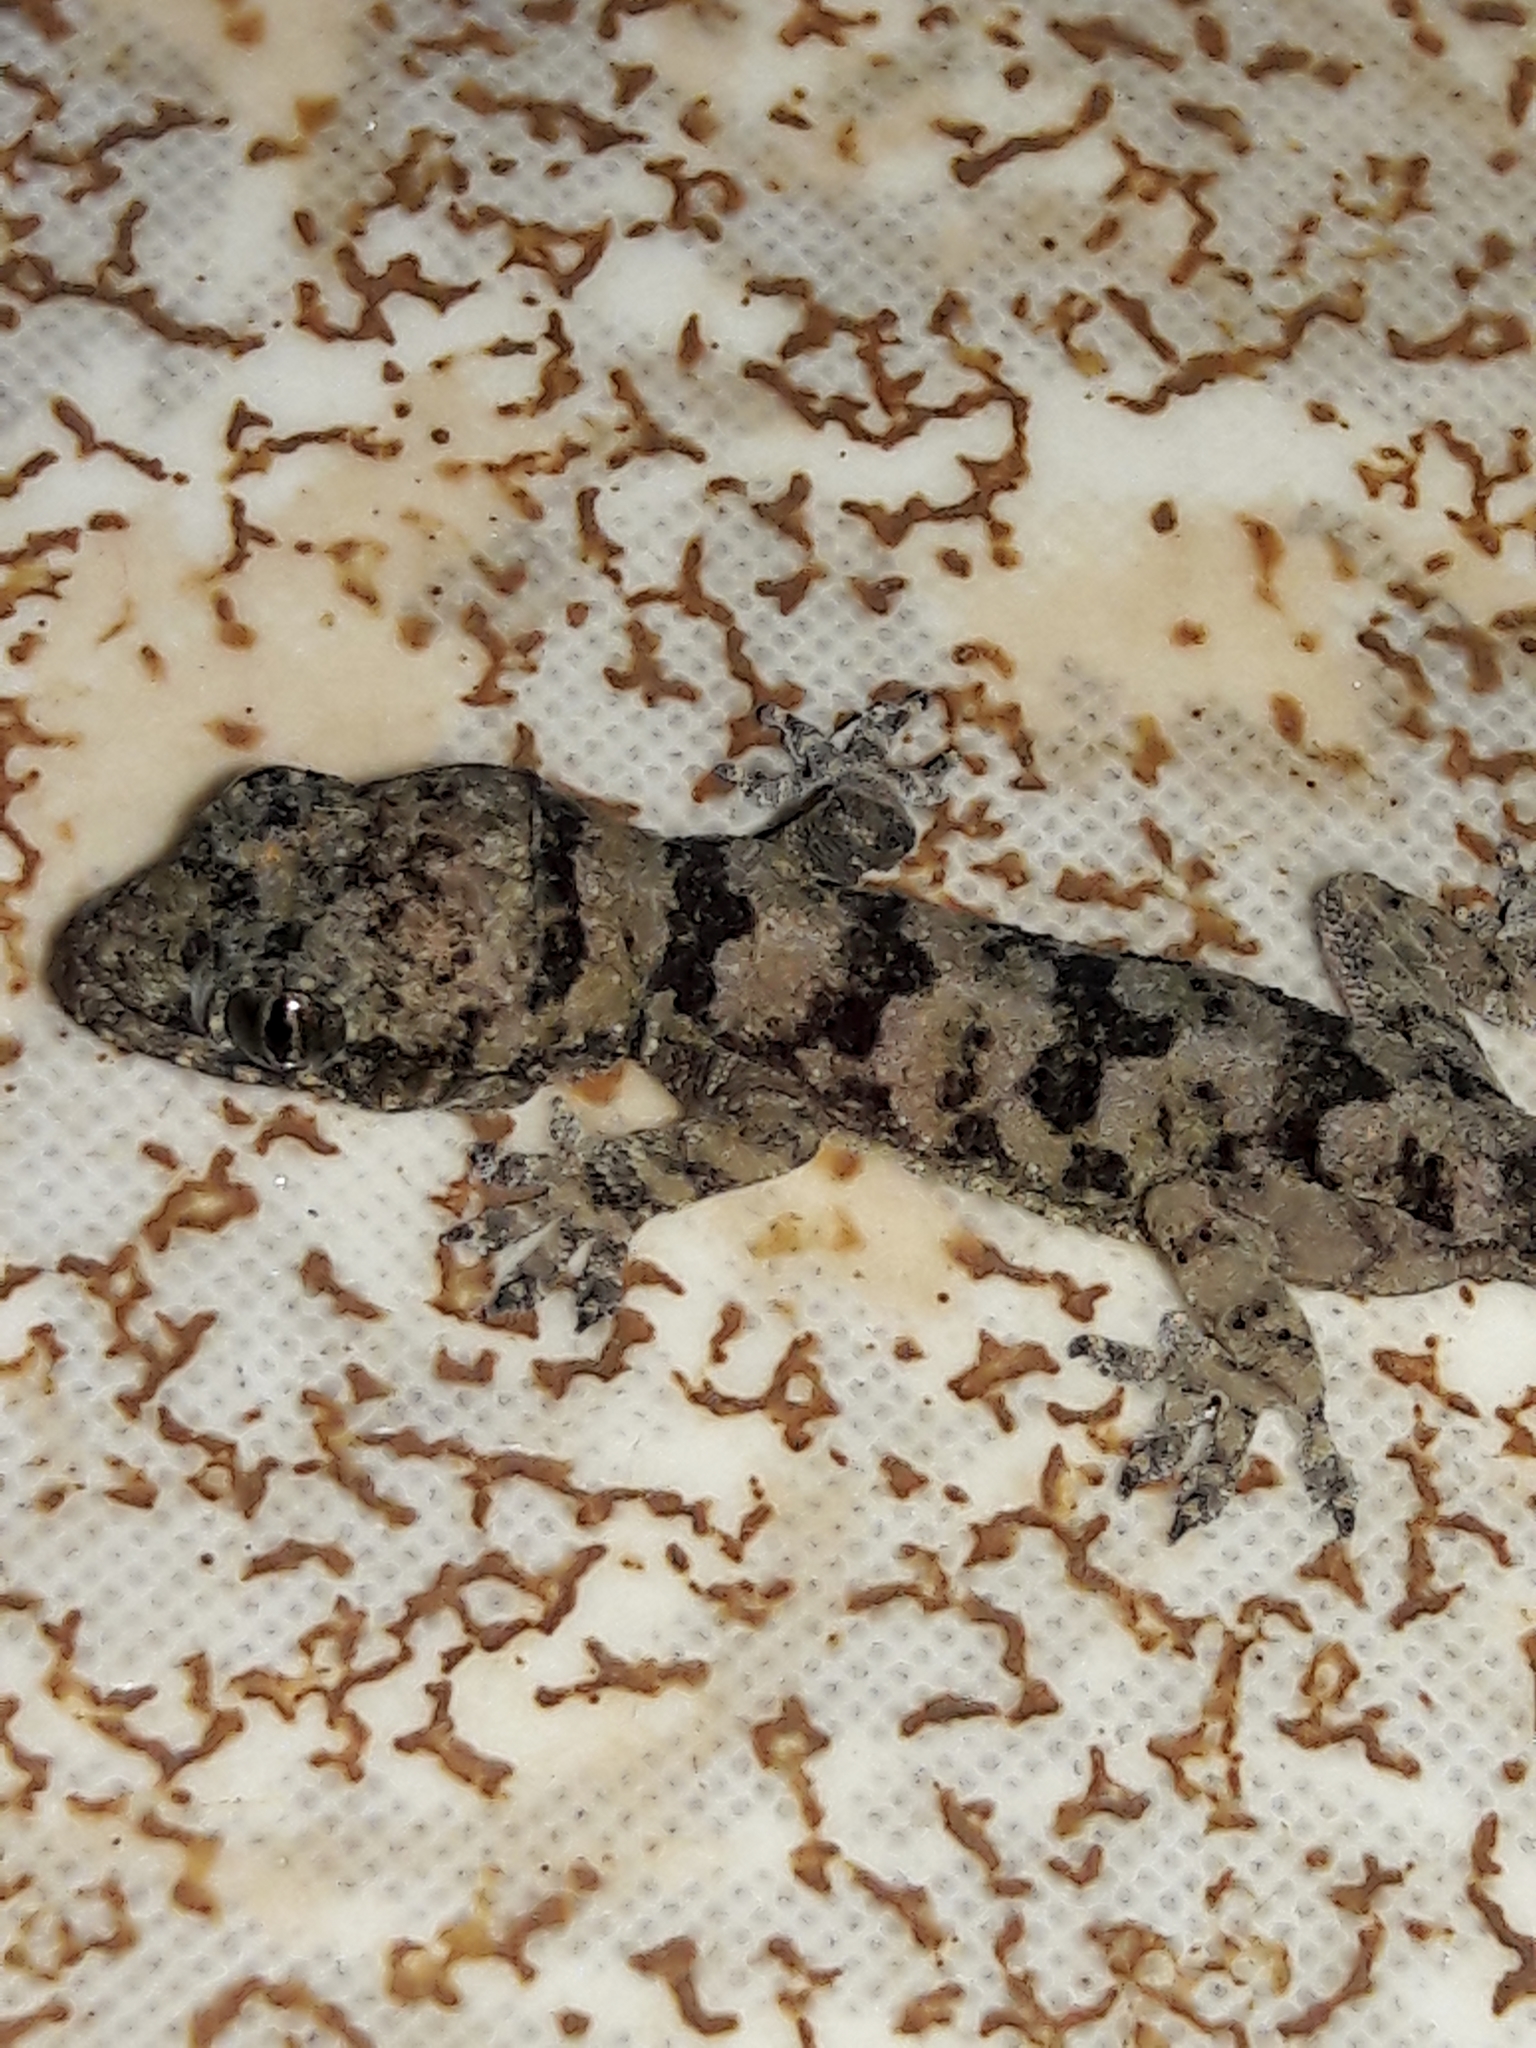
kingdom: Animalia
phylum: Chordata
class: Squamata
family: Gekkonidae
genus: Hemidactylus
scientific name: Hemidactylus mabouia
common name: House gecko
